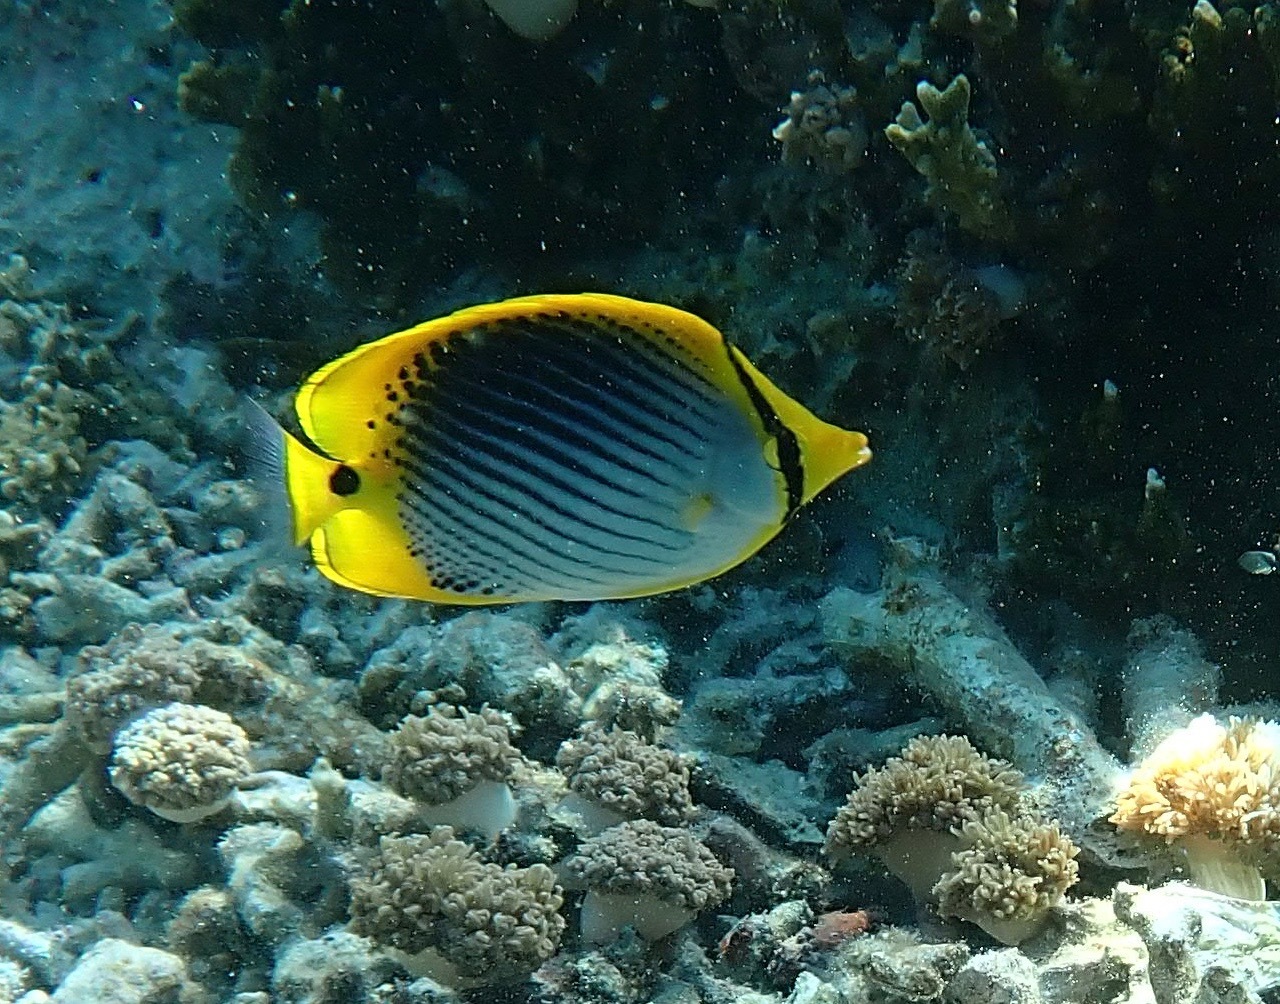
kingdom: Animalia
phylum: Chordata
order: Perciformes
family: Chaetodontidae
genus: Chaetodon
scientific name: Chaetodon ocellicaudus
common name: Spot-tail butterflyfish
